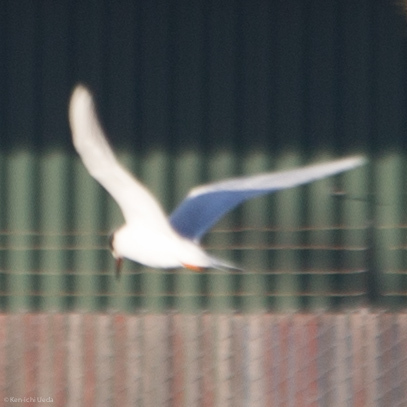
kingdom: Animalia
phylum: Chordata
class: Aves
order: Charadriiformes
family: Laridae
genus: Sterna
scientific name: Sterna forsteri
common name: Forster's tern
